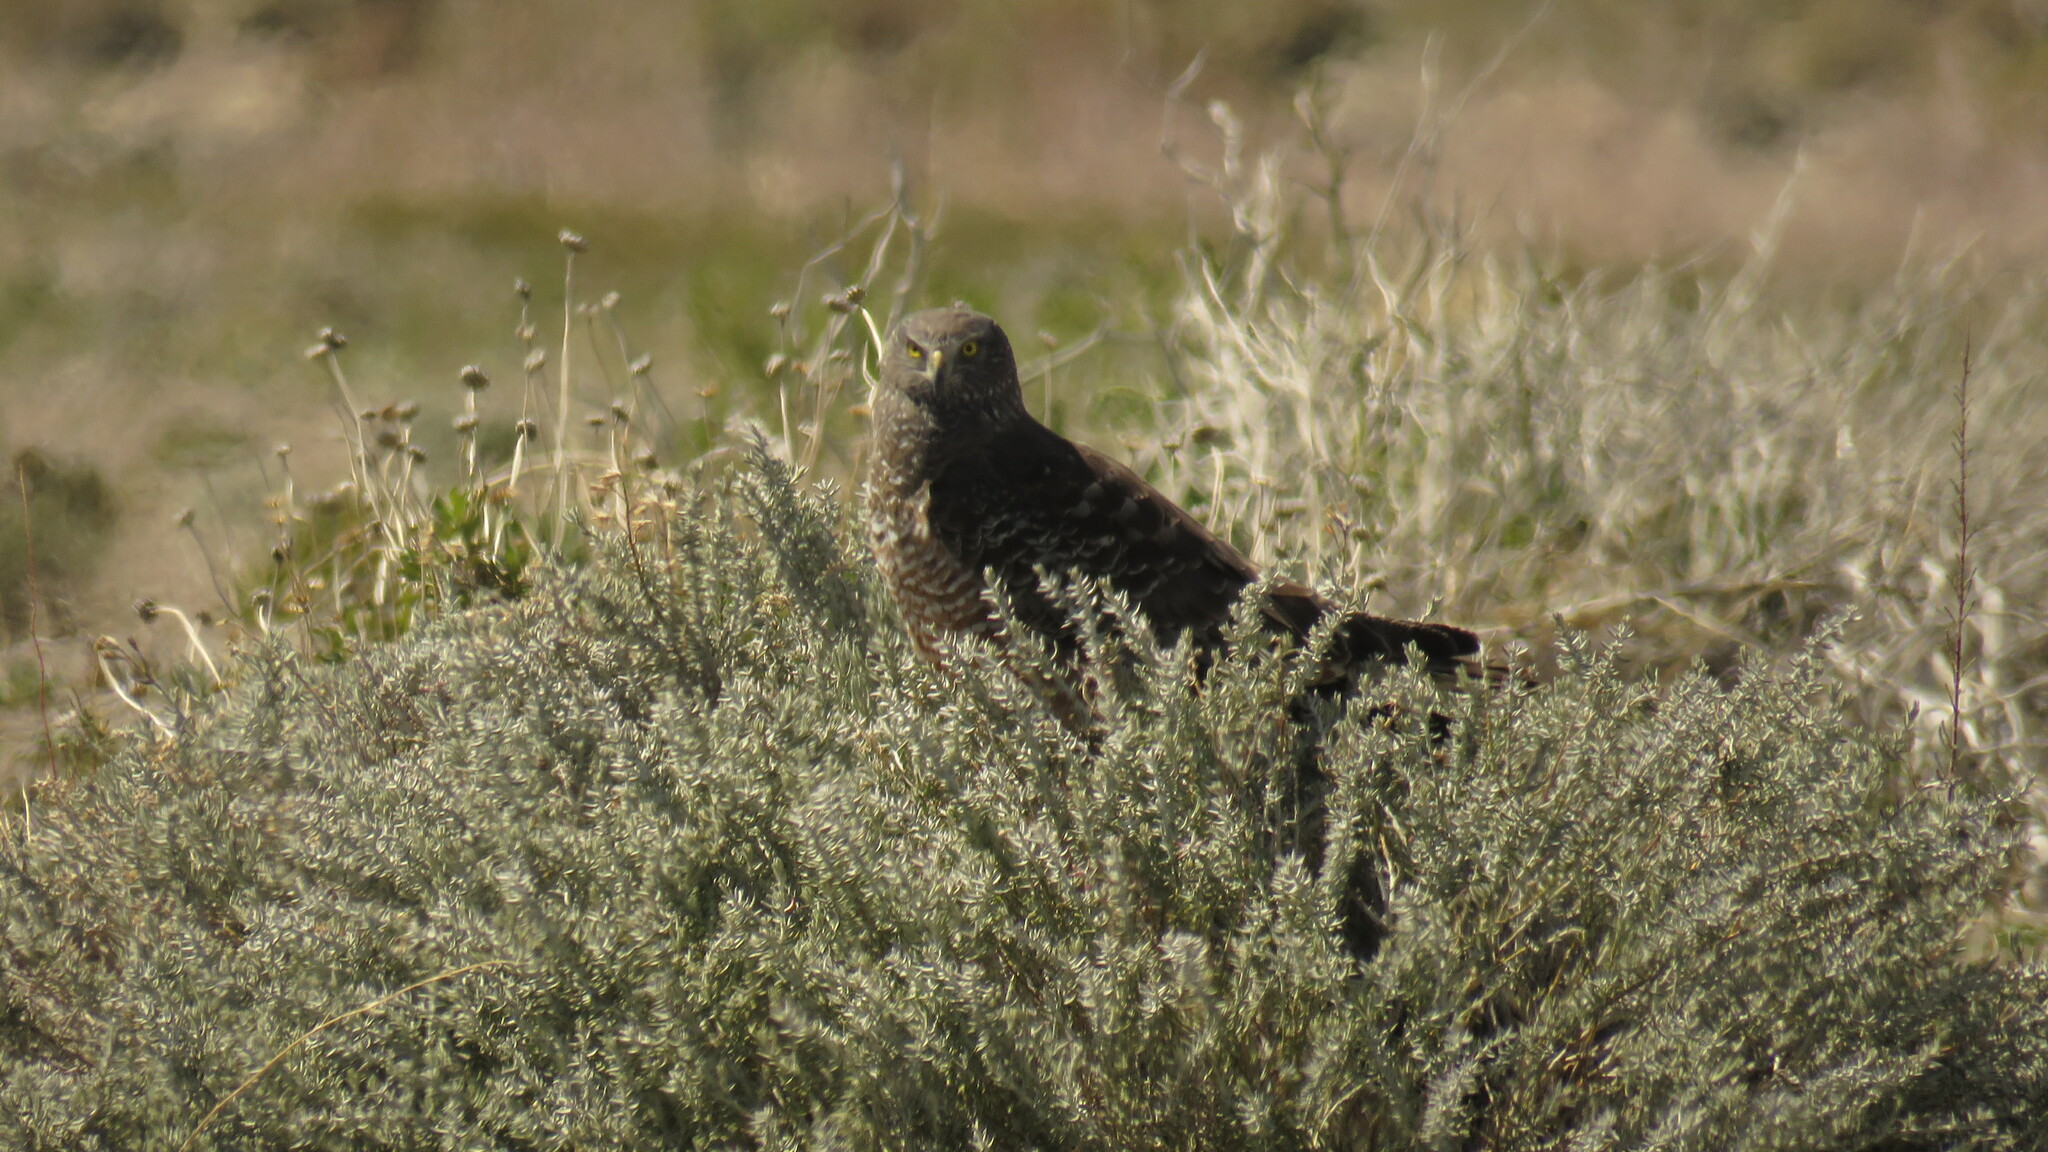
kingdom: Animalia
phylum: Chordata
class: Aves
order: Accipitriformes
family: Accipitridae
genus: Circus
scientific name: Circus cinereus
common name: Cinereous harrier
